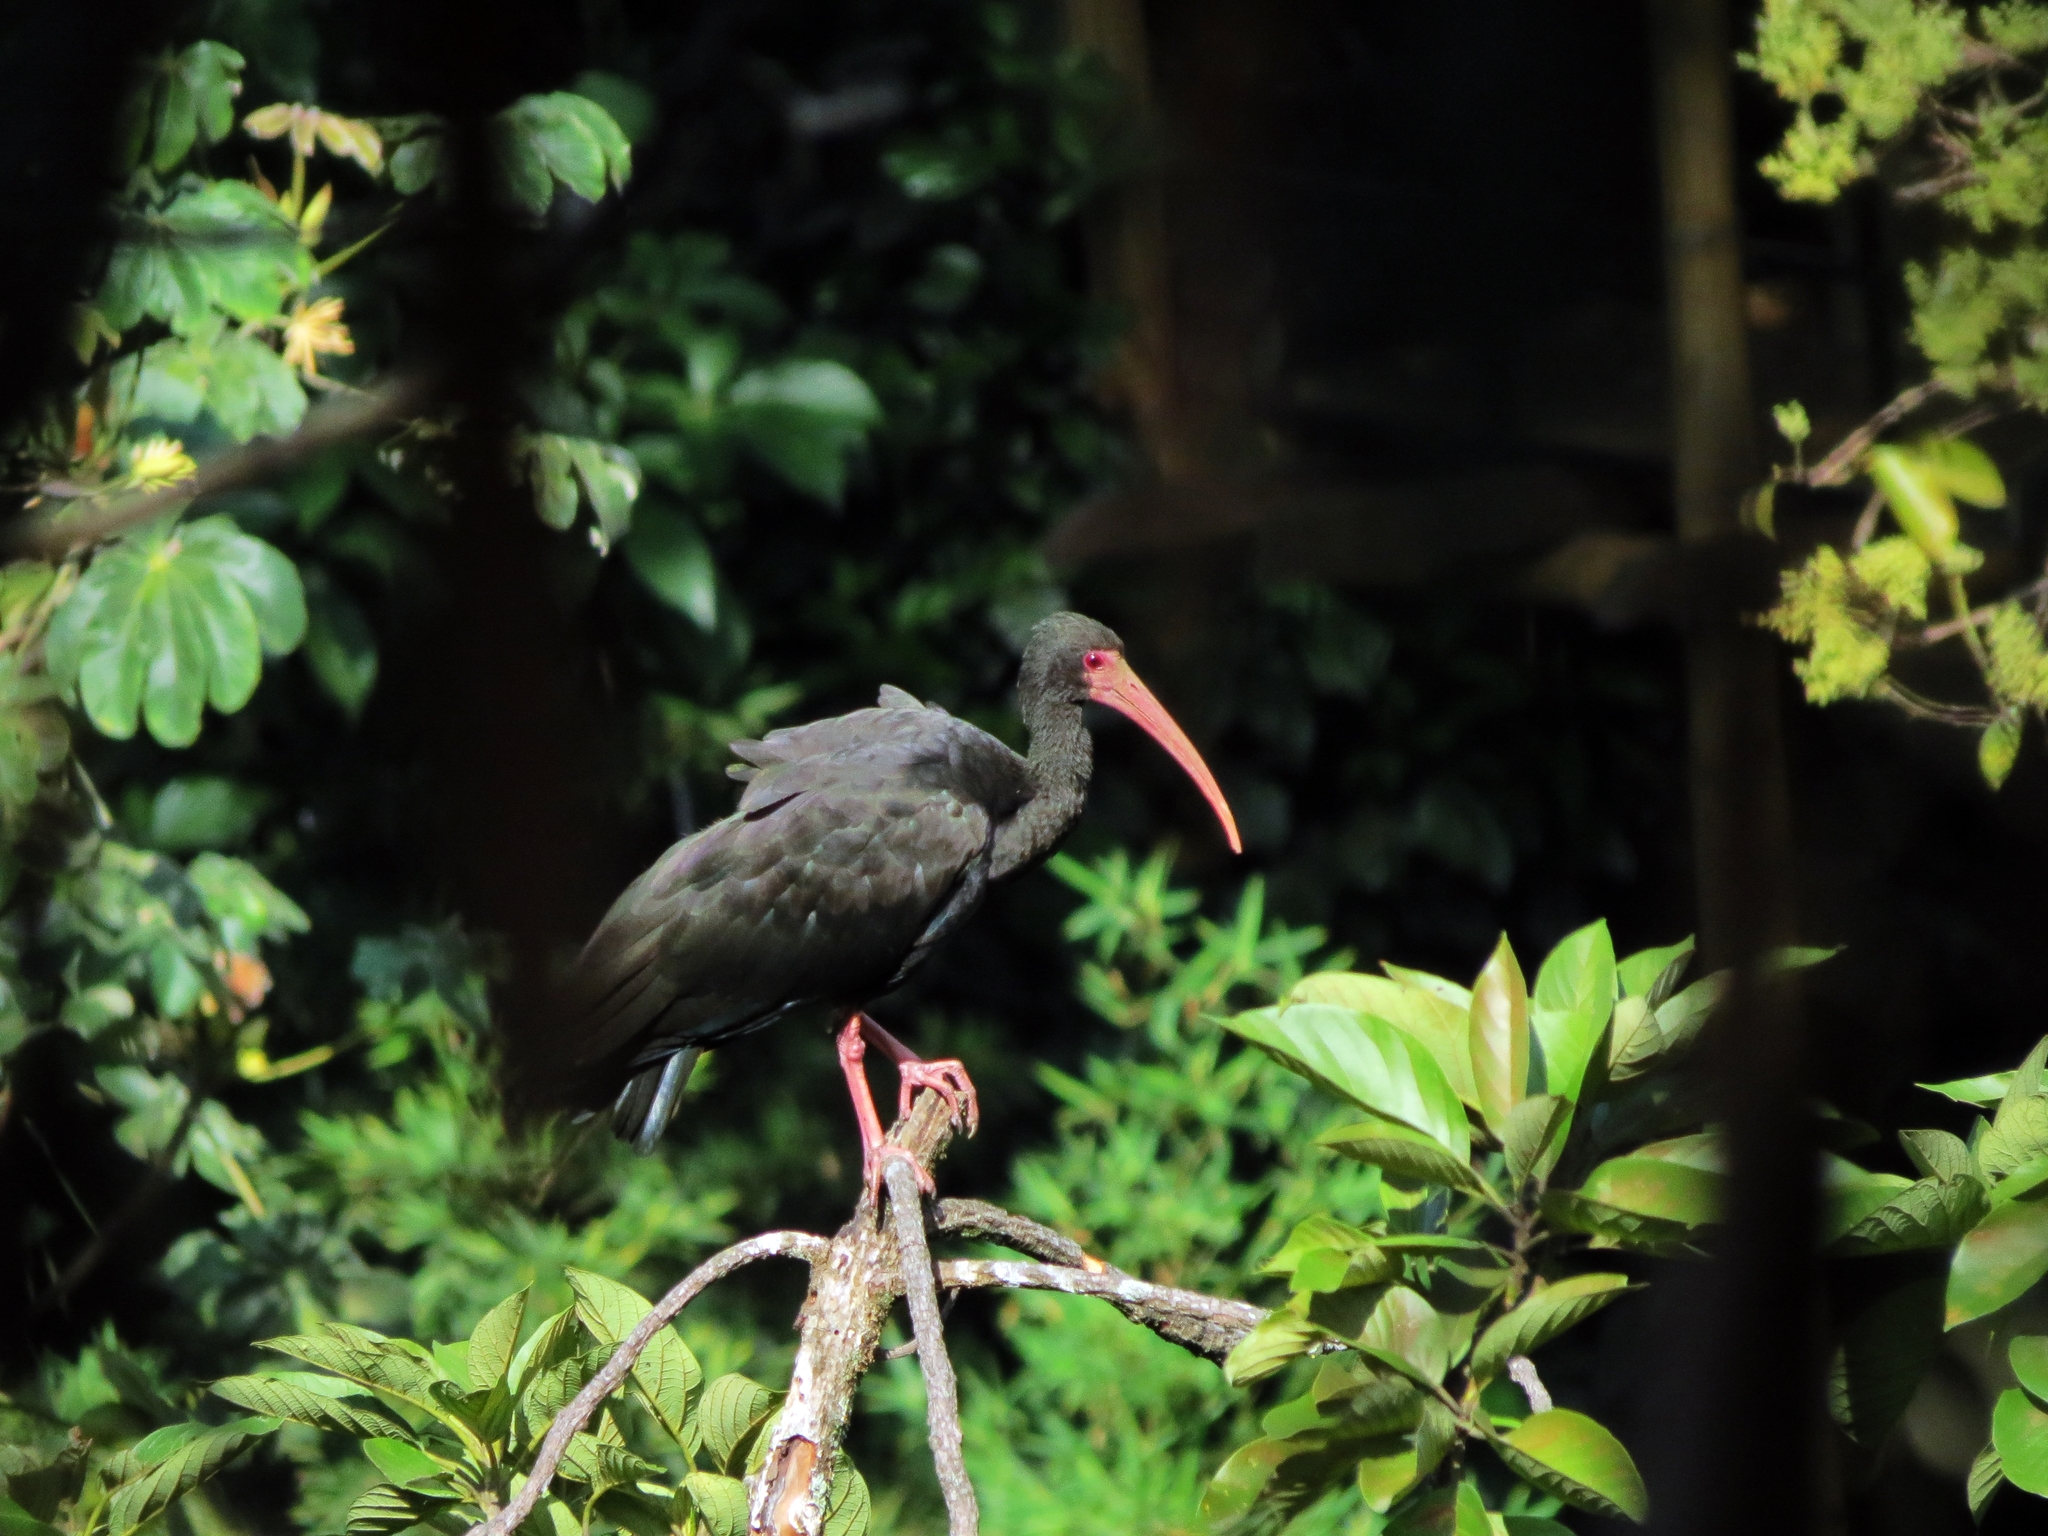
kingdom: Animalia
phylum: Chordata
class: Aves
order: Pelecaniformes
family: Threskiornithidae
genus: Phimosus
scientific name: Phimosus infuscatus
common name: Bare-faced ibis
